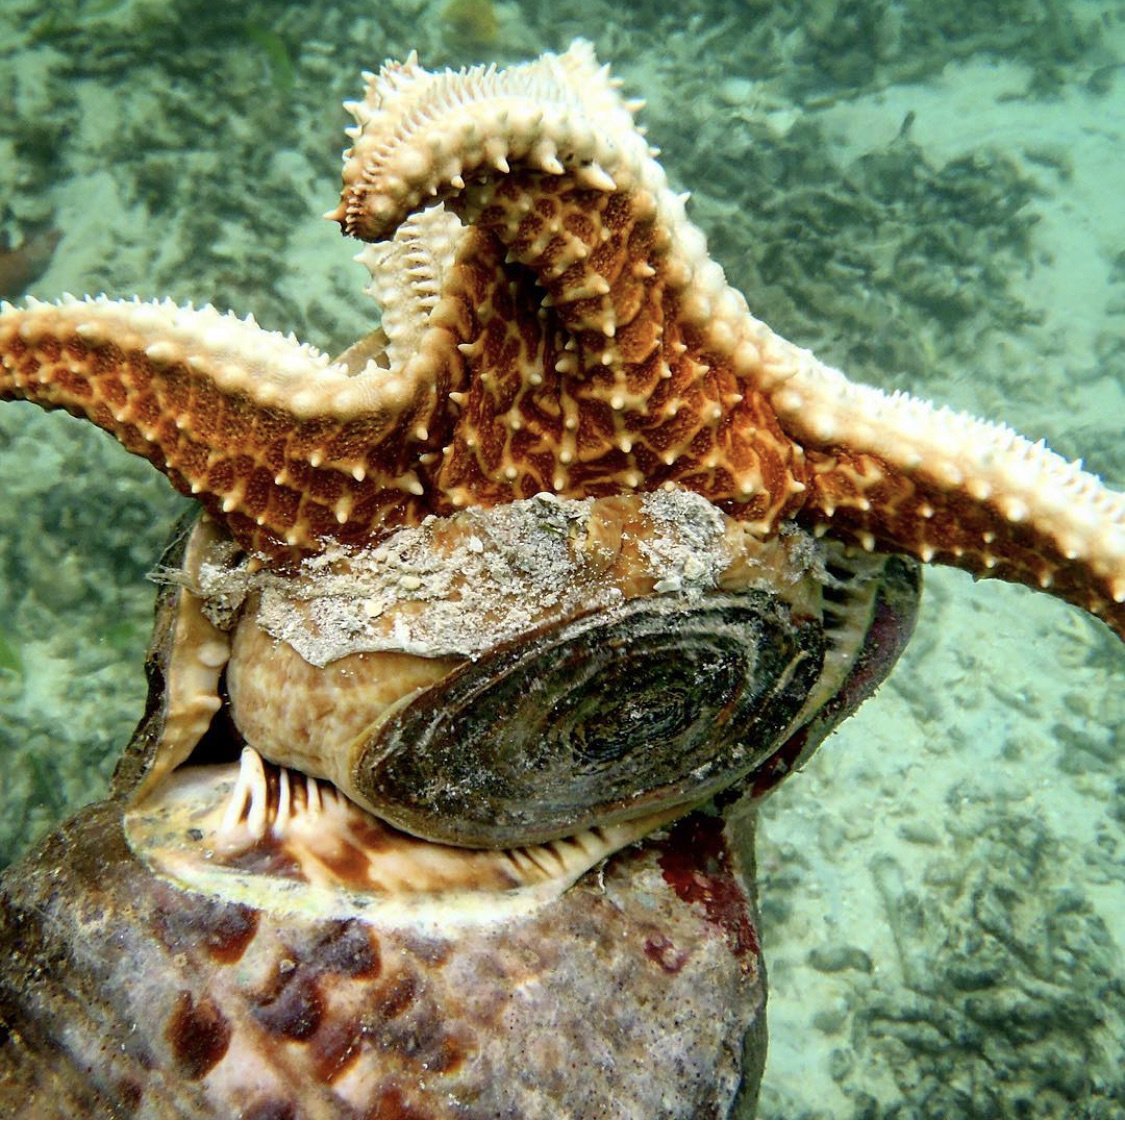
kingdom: Animalia
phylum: Mollusca
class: Gastropoda
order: Littorinimorpha
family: Charoniidae
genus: Charonia
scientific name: Charonia variegata
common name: Atlantic triton
